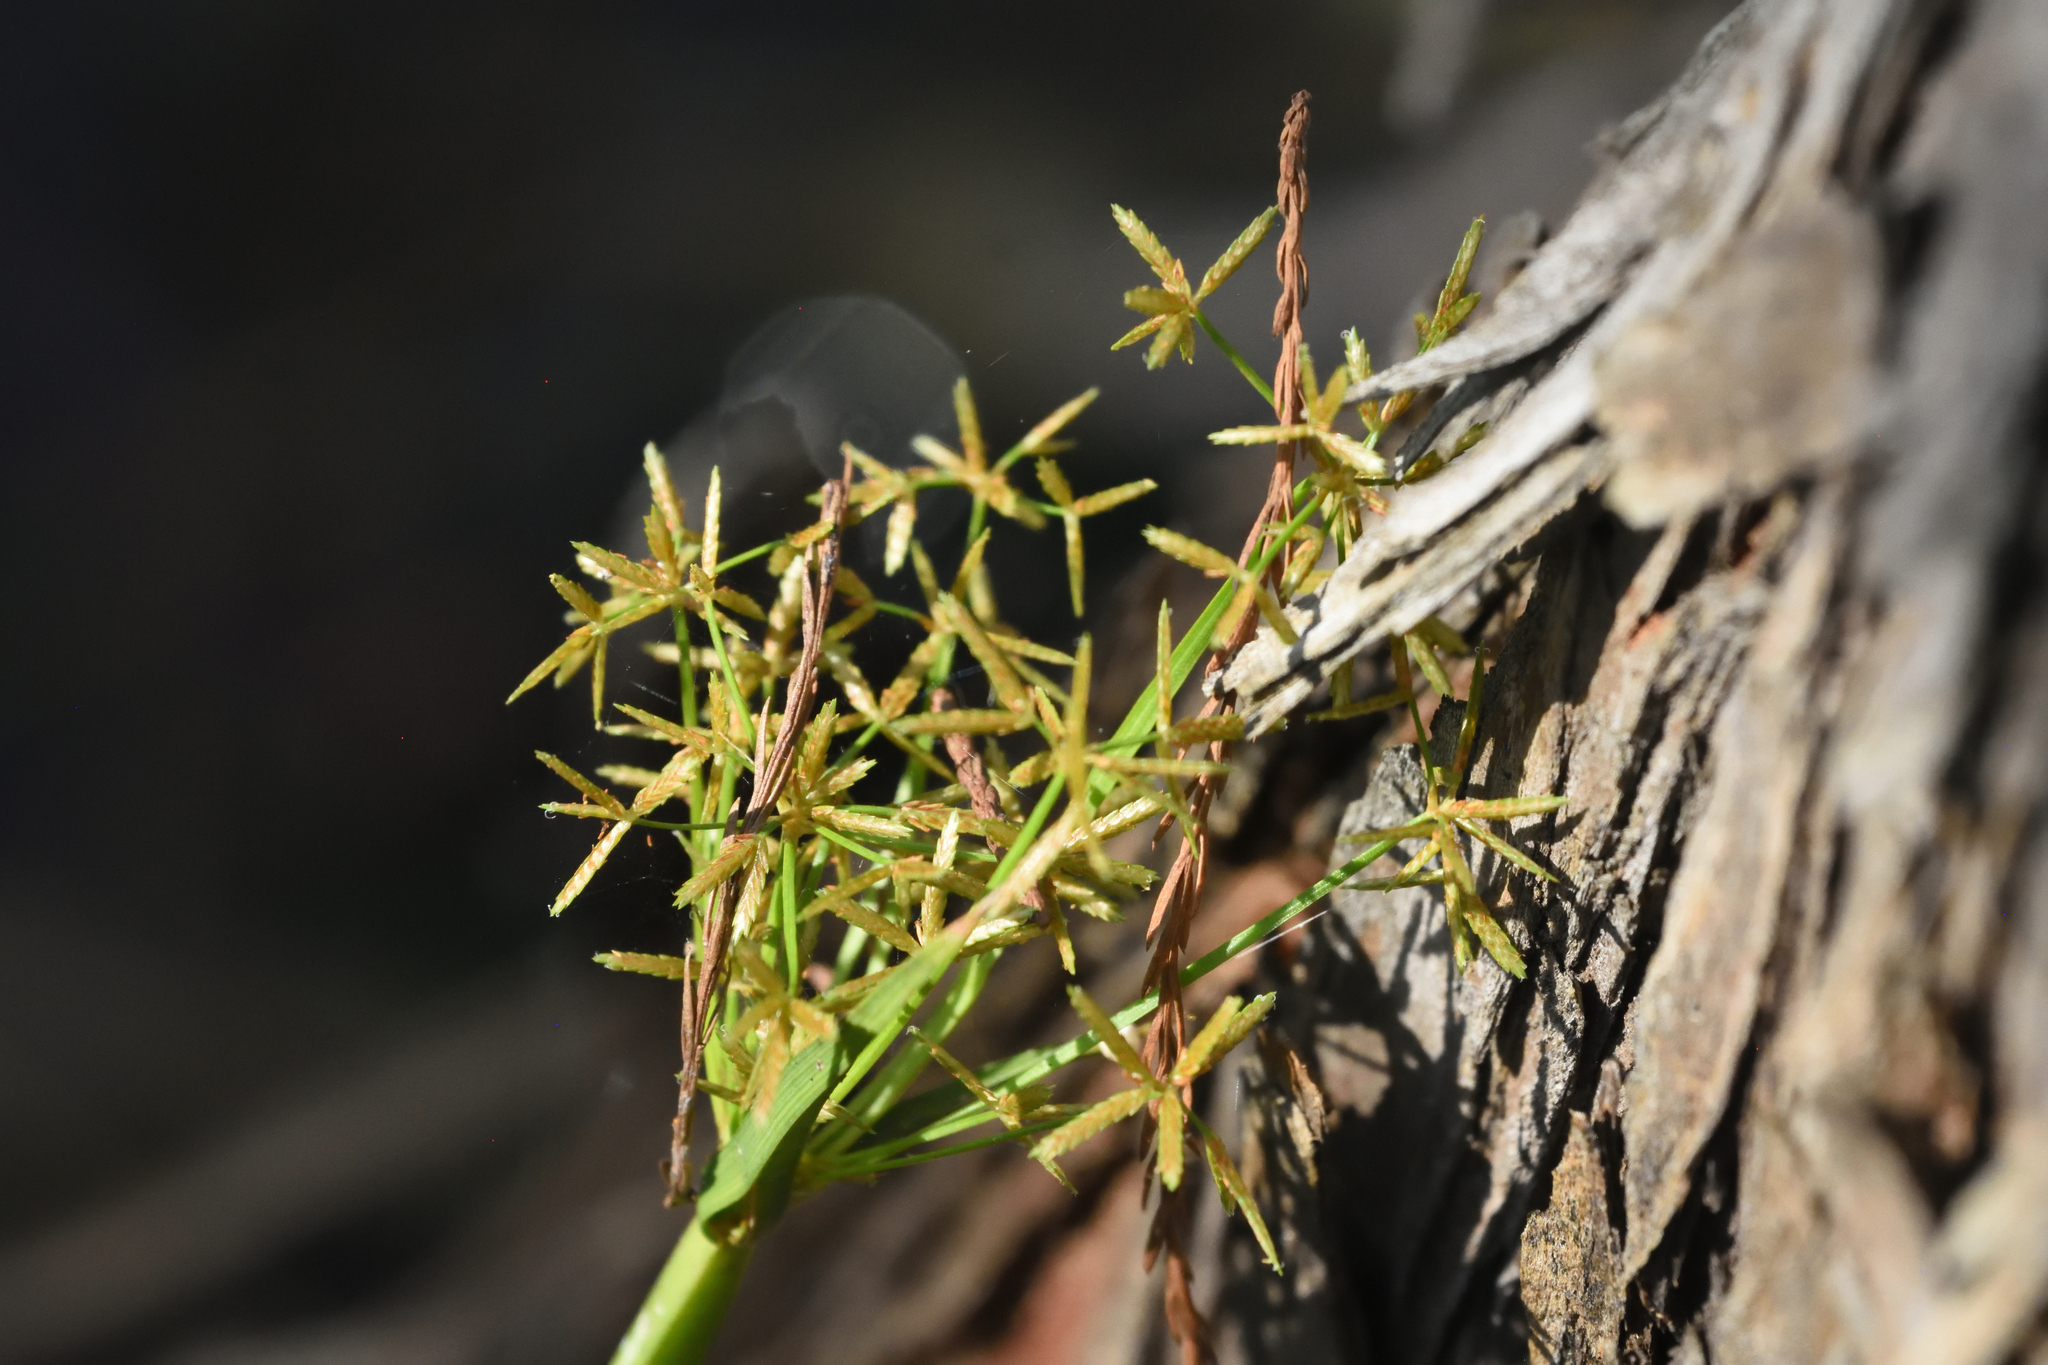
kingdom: Plantae
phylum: Tracheophyta
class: Liliopsida
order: Poales
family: Cyperaceae
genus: Cyperus
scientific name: Cyperus haspan
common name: Haspan flatsedge
